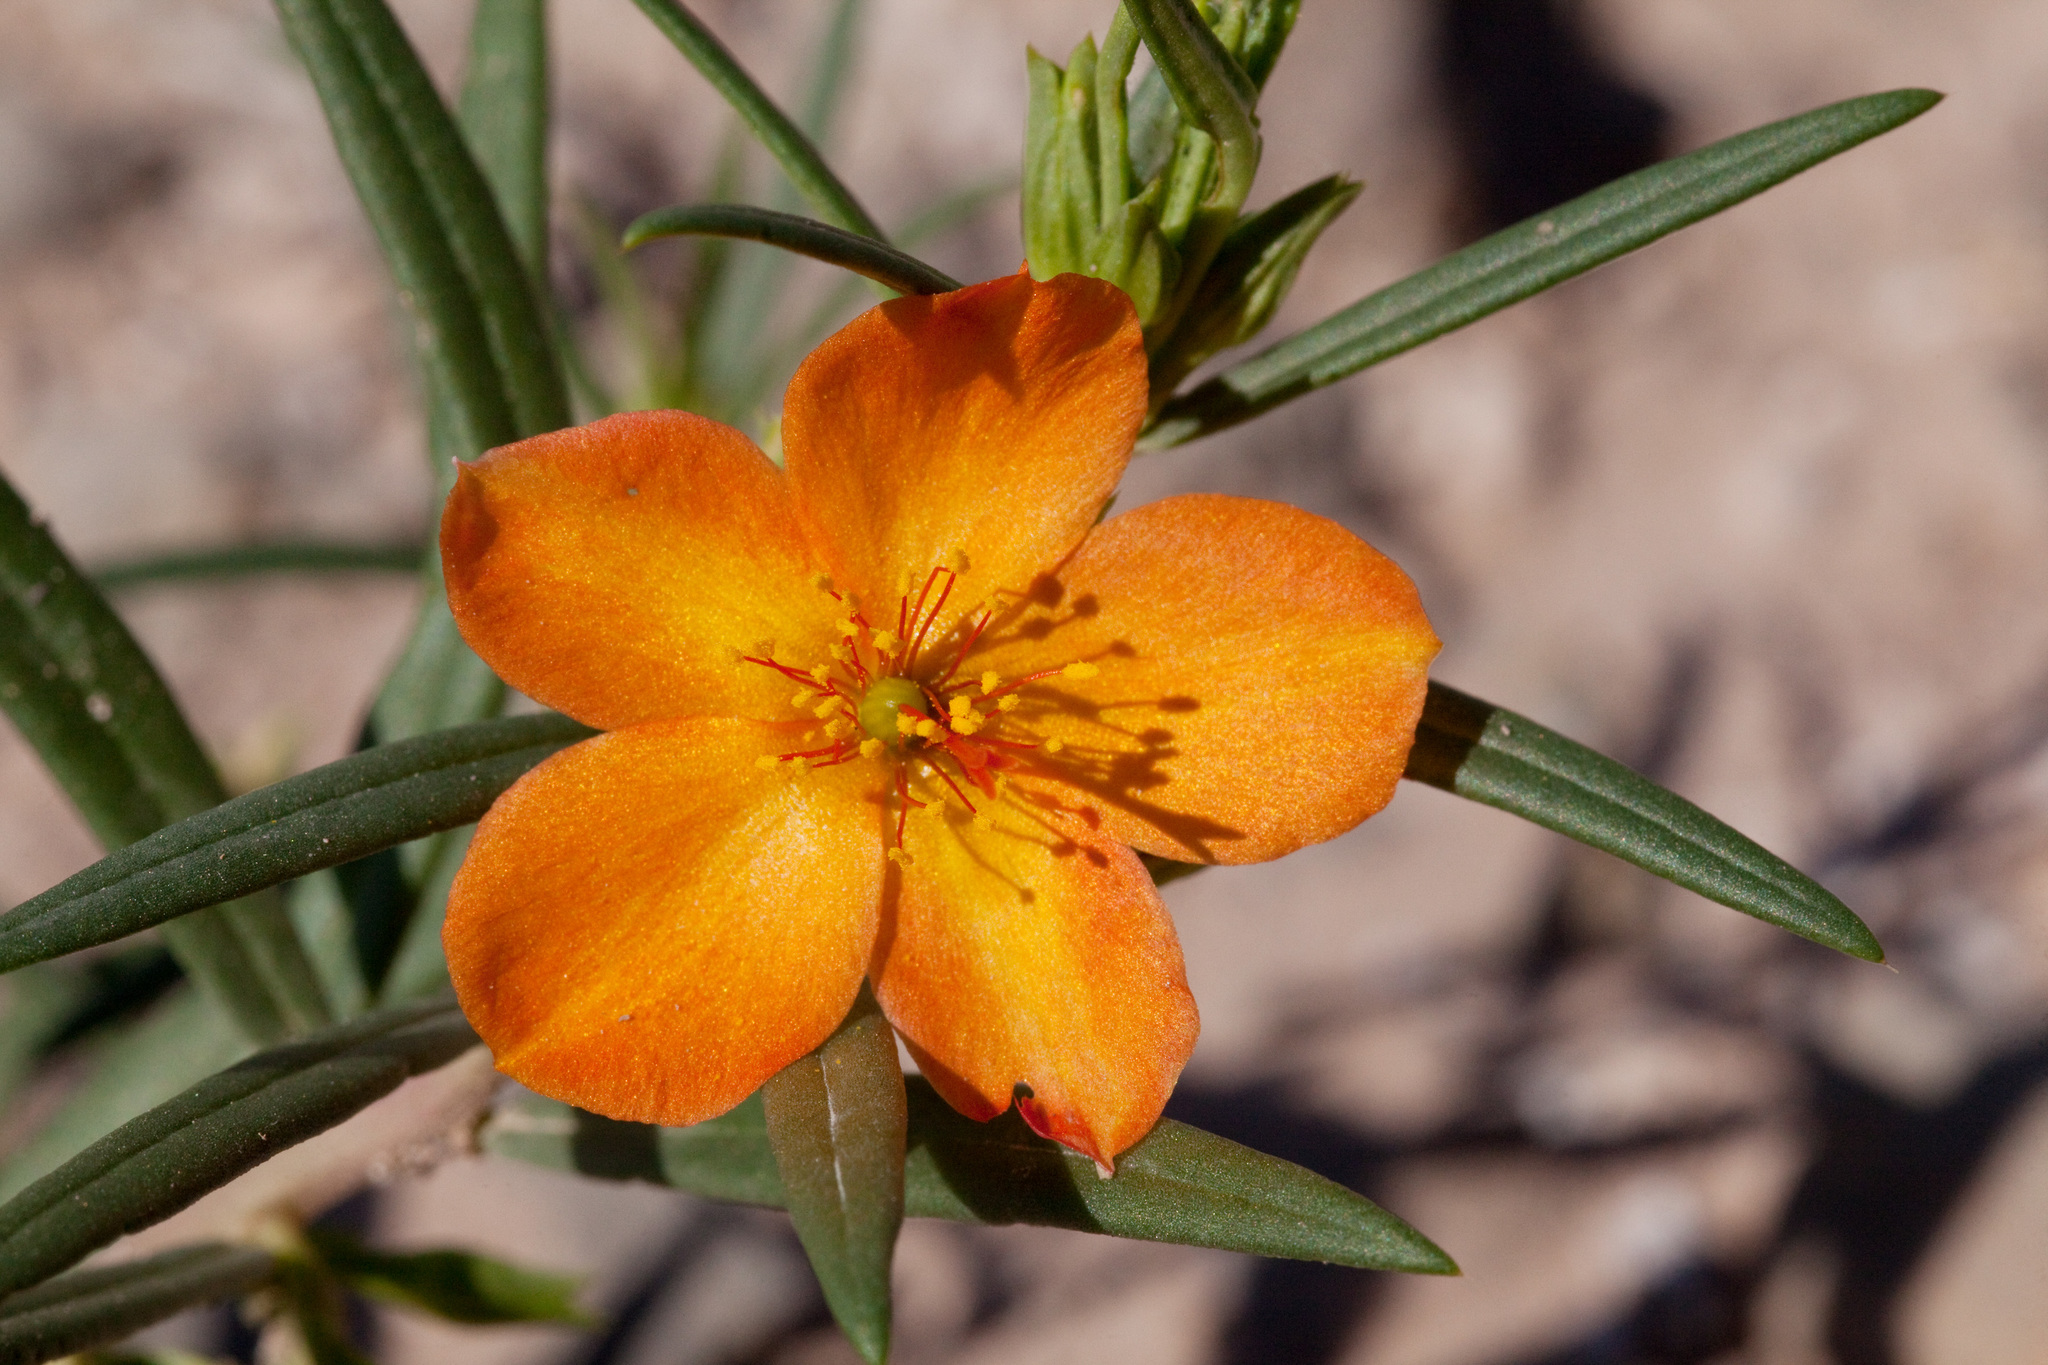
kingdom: Plantae
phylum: Tracheophyta
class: Magnoliopsida
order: Caryophyllales
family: Montiaceae
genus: Phemeranthus
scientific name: Phemeranthus aurantiacus
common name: Orange fameflower
